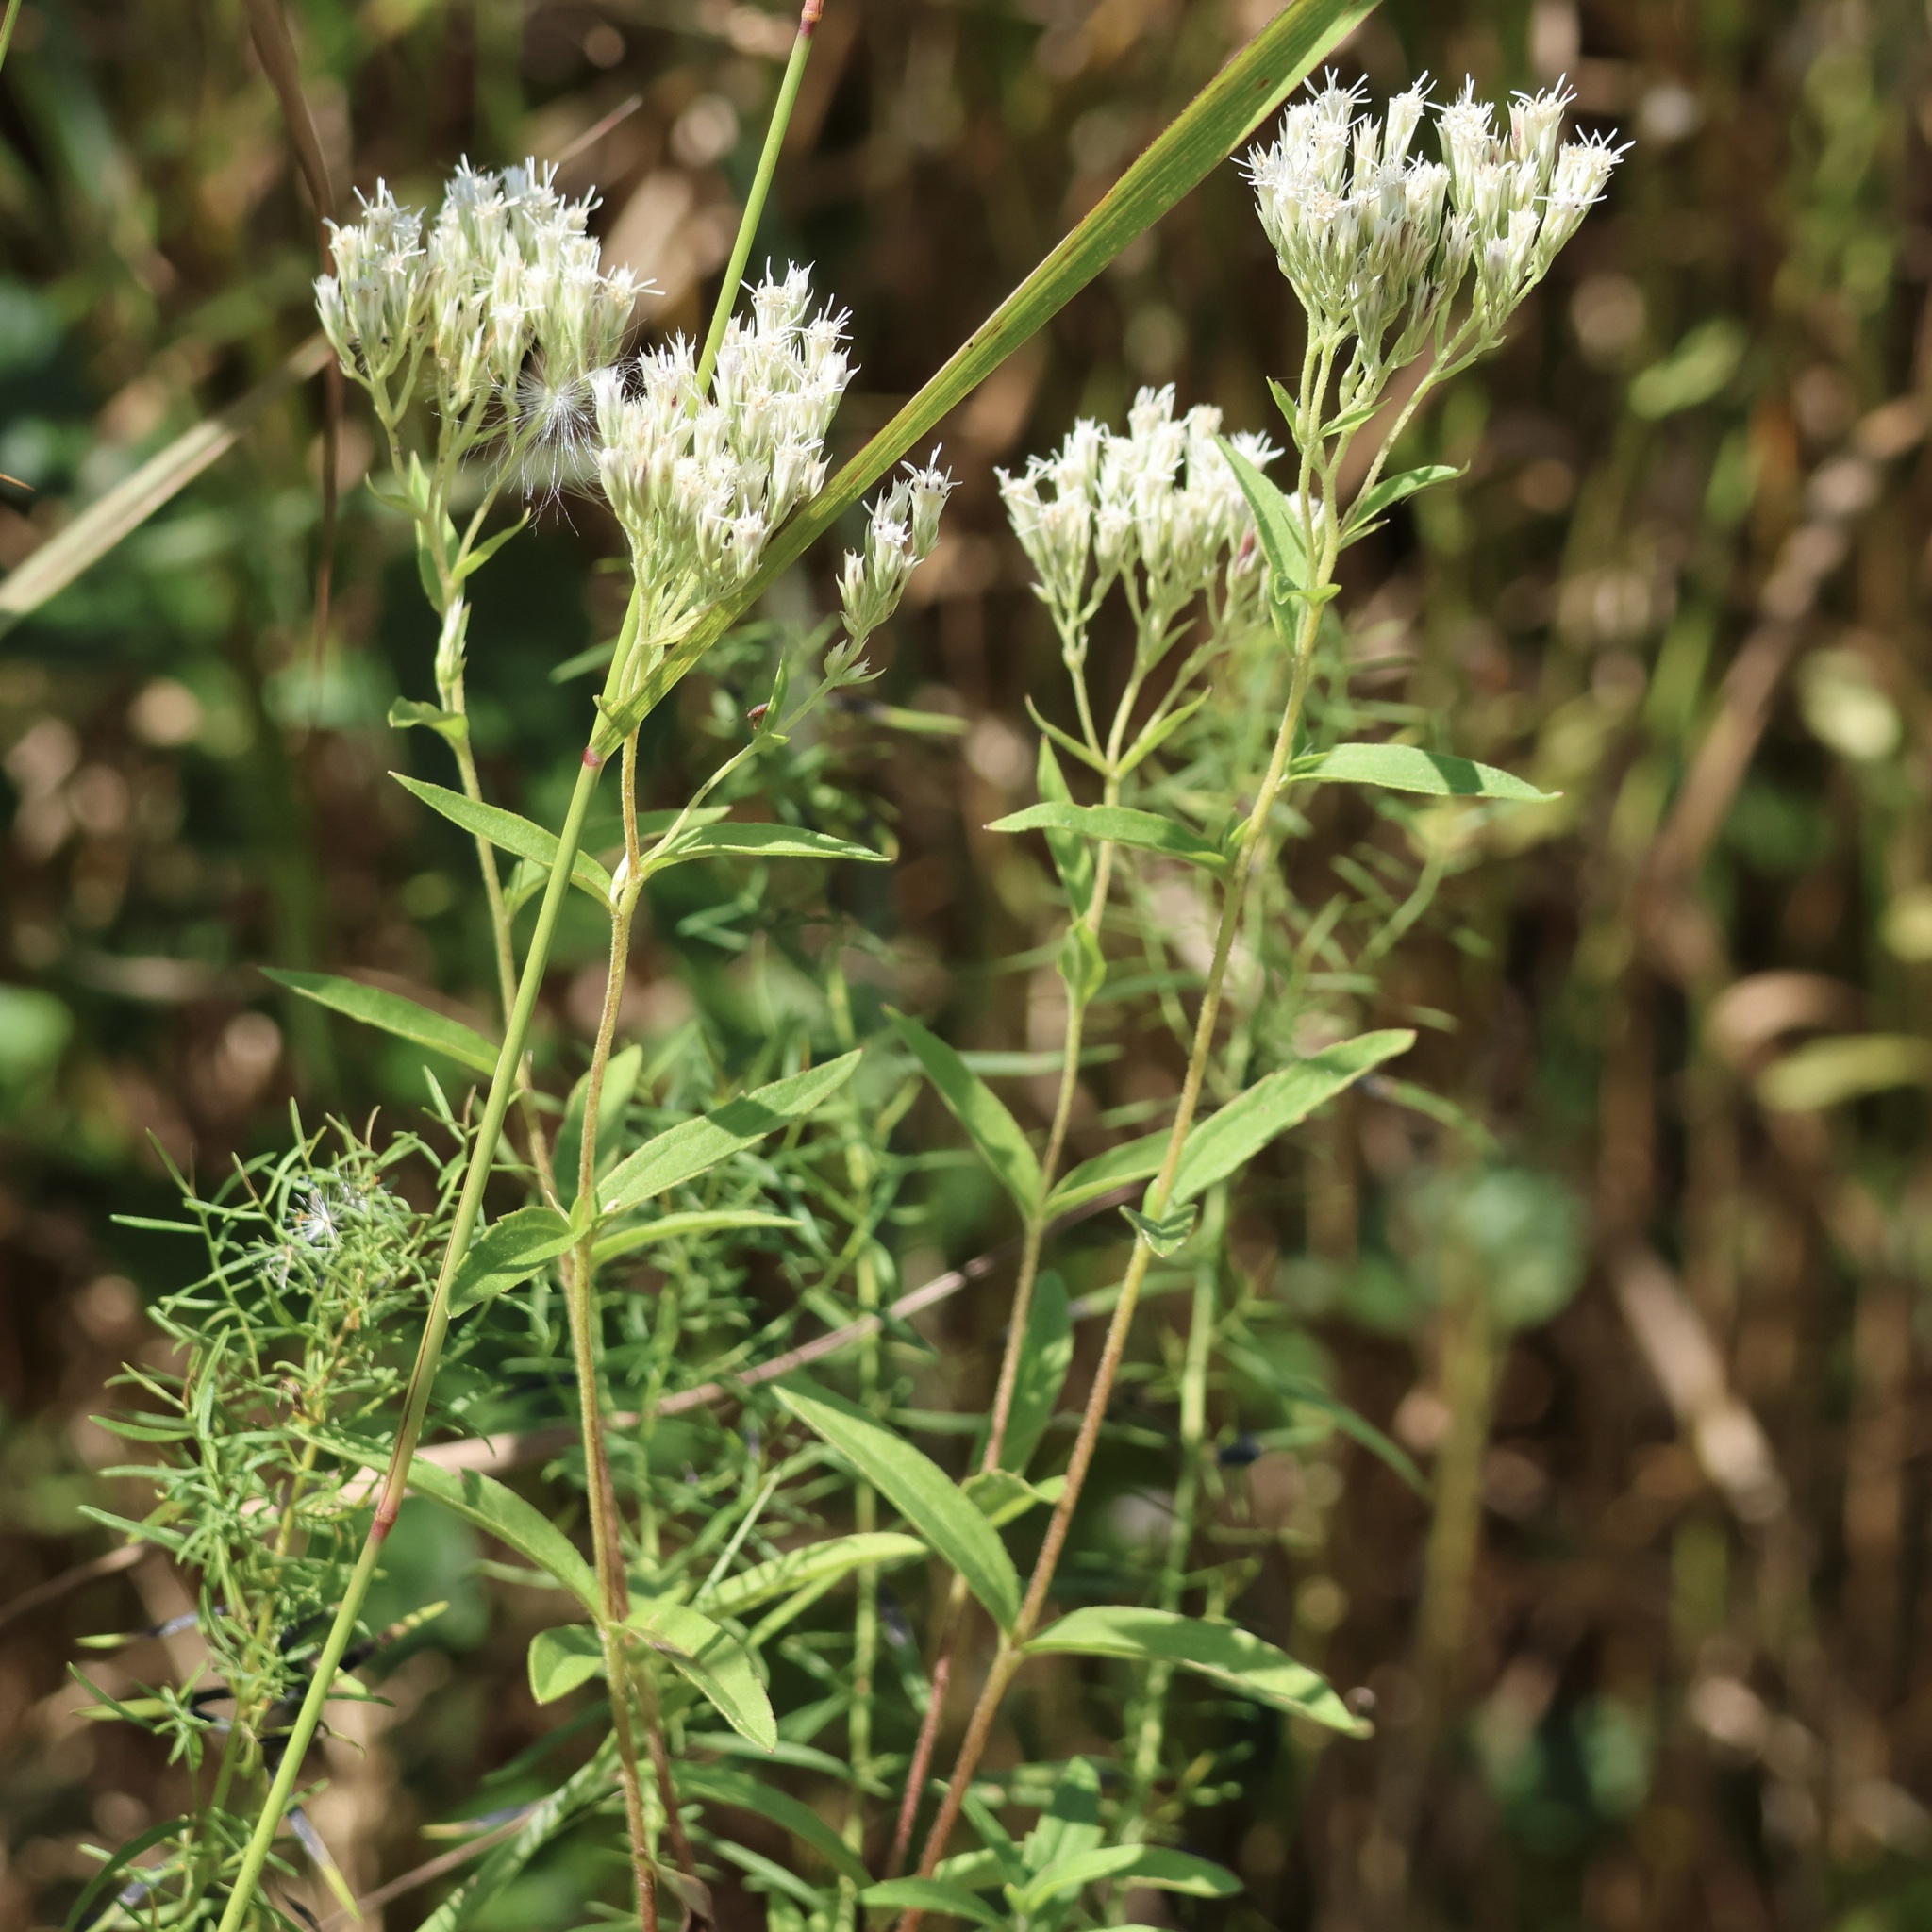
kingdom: Plantae
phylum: Tracheophyta
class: Magnoliopsida
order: Asterales
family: Asteraceae
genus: Eupatorium
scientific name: Eupatorium subvenosum
